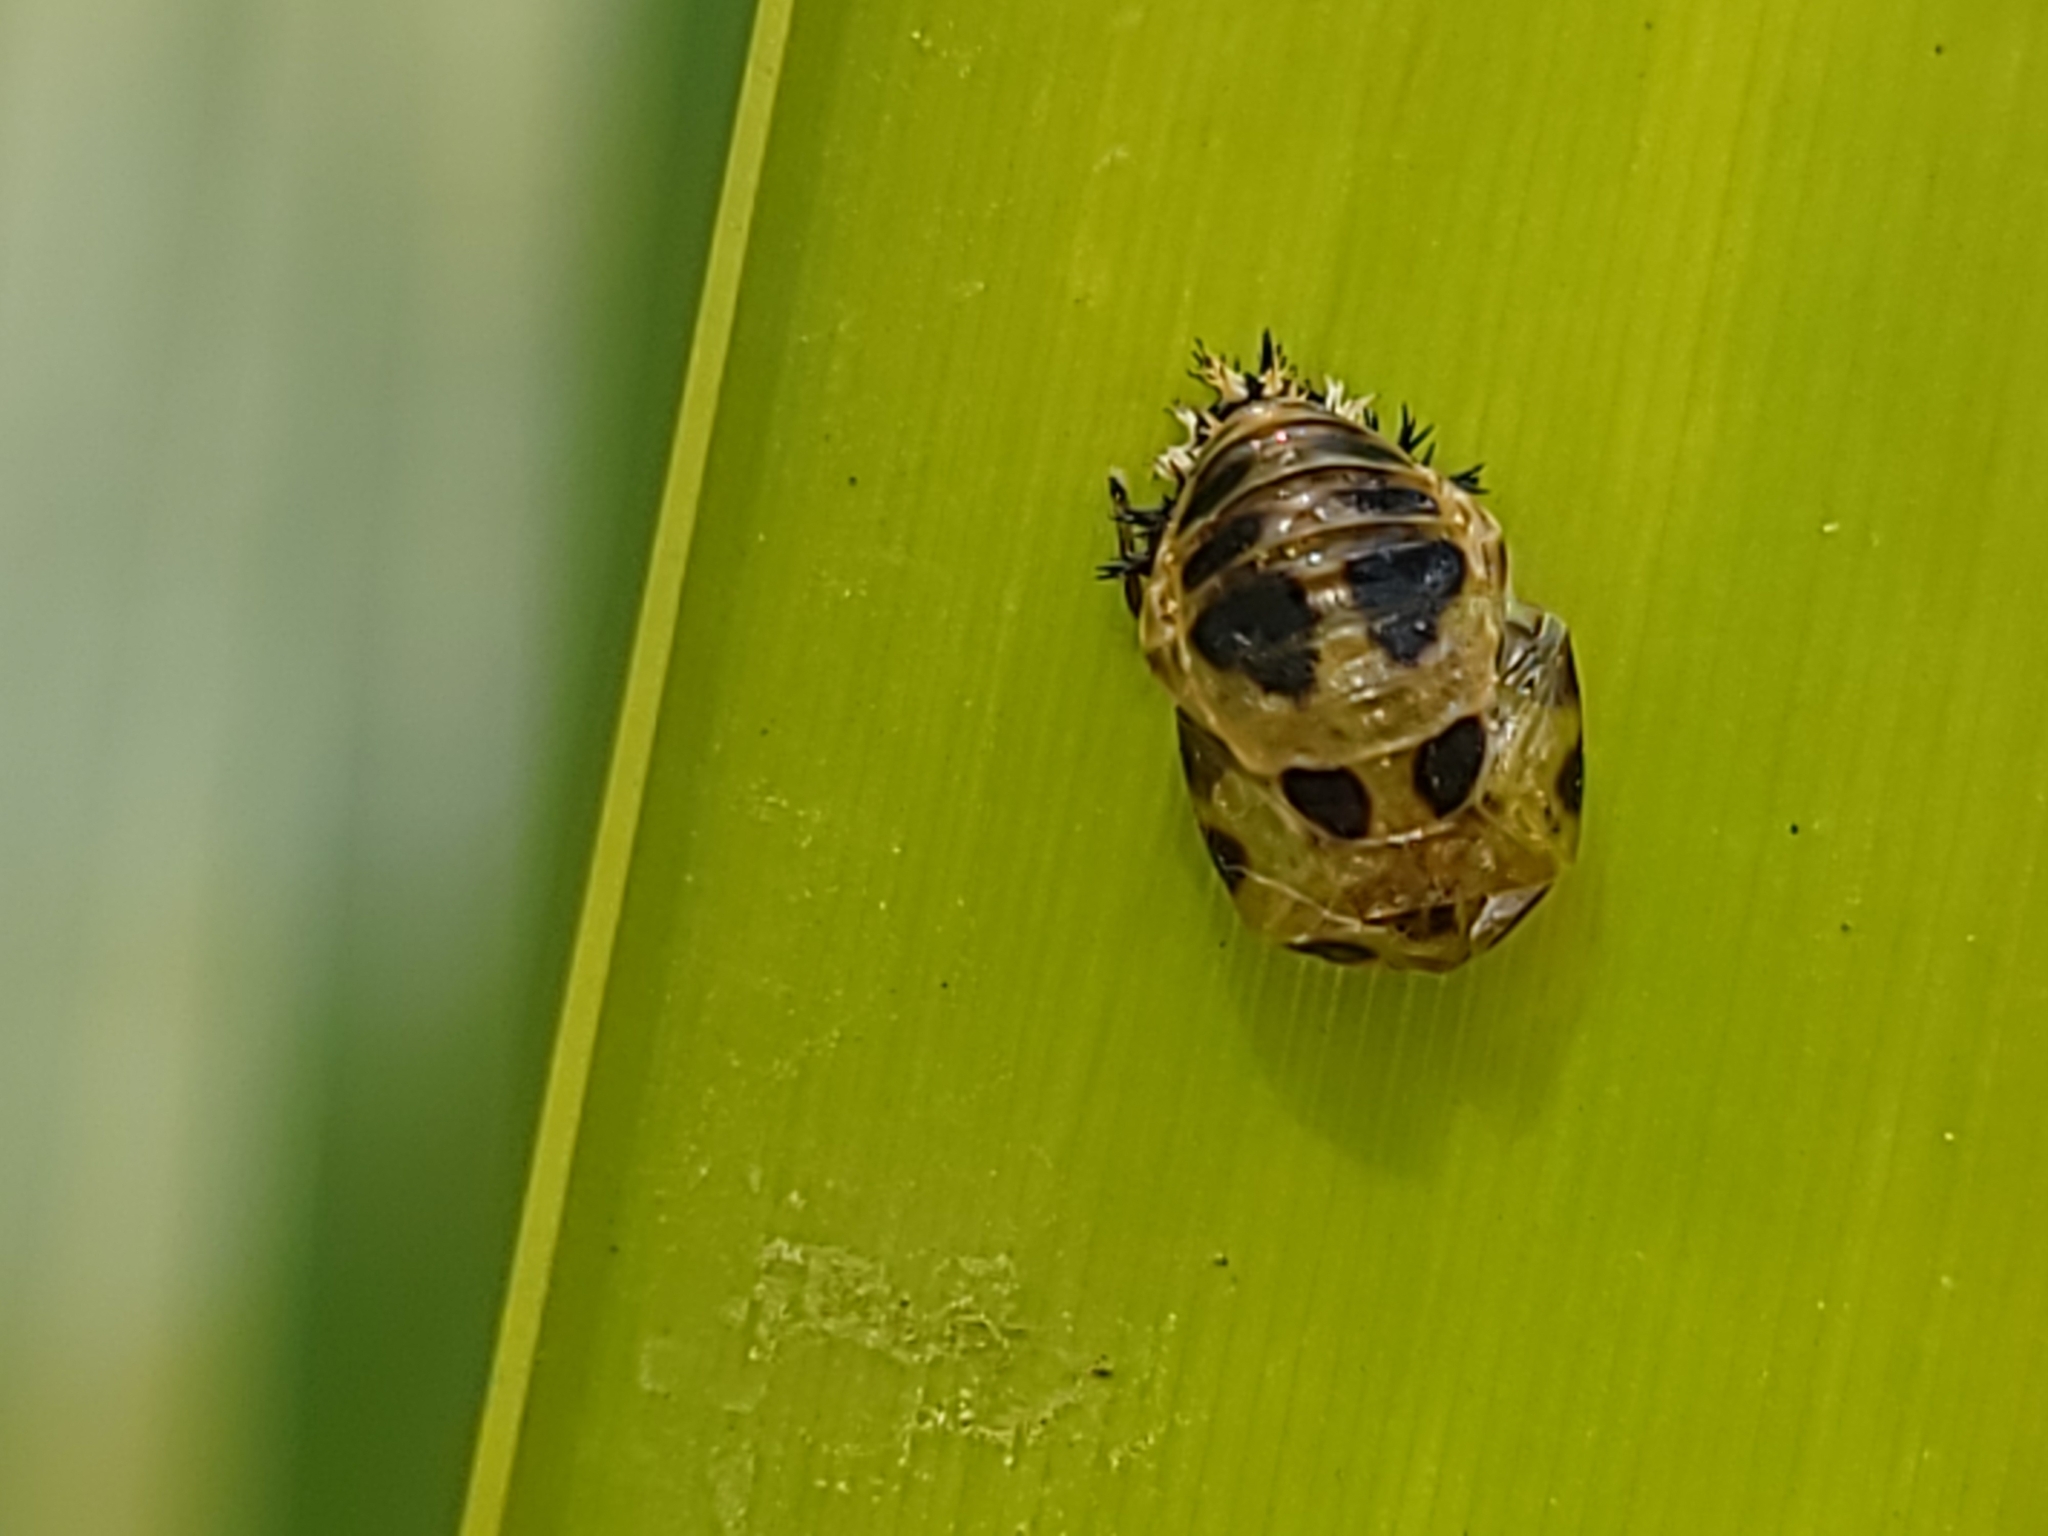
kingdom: Animalia
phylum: Arthropoda
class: Insecta
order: Coleoptera
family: Coccinellidae
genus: Harmonia
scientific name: Harmonia axyridis
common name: Harlequin ladybird
